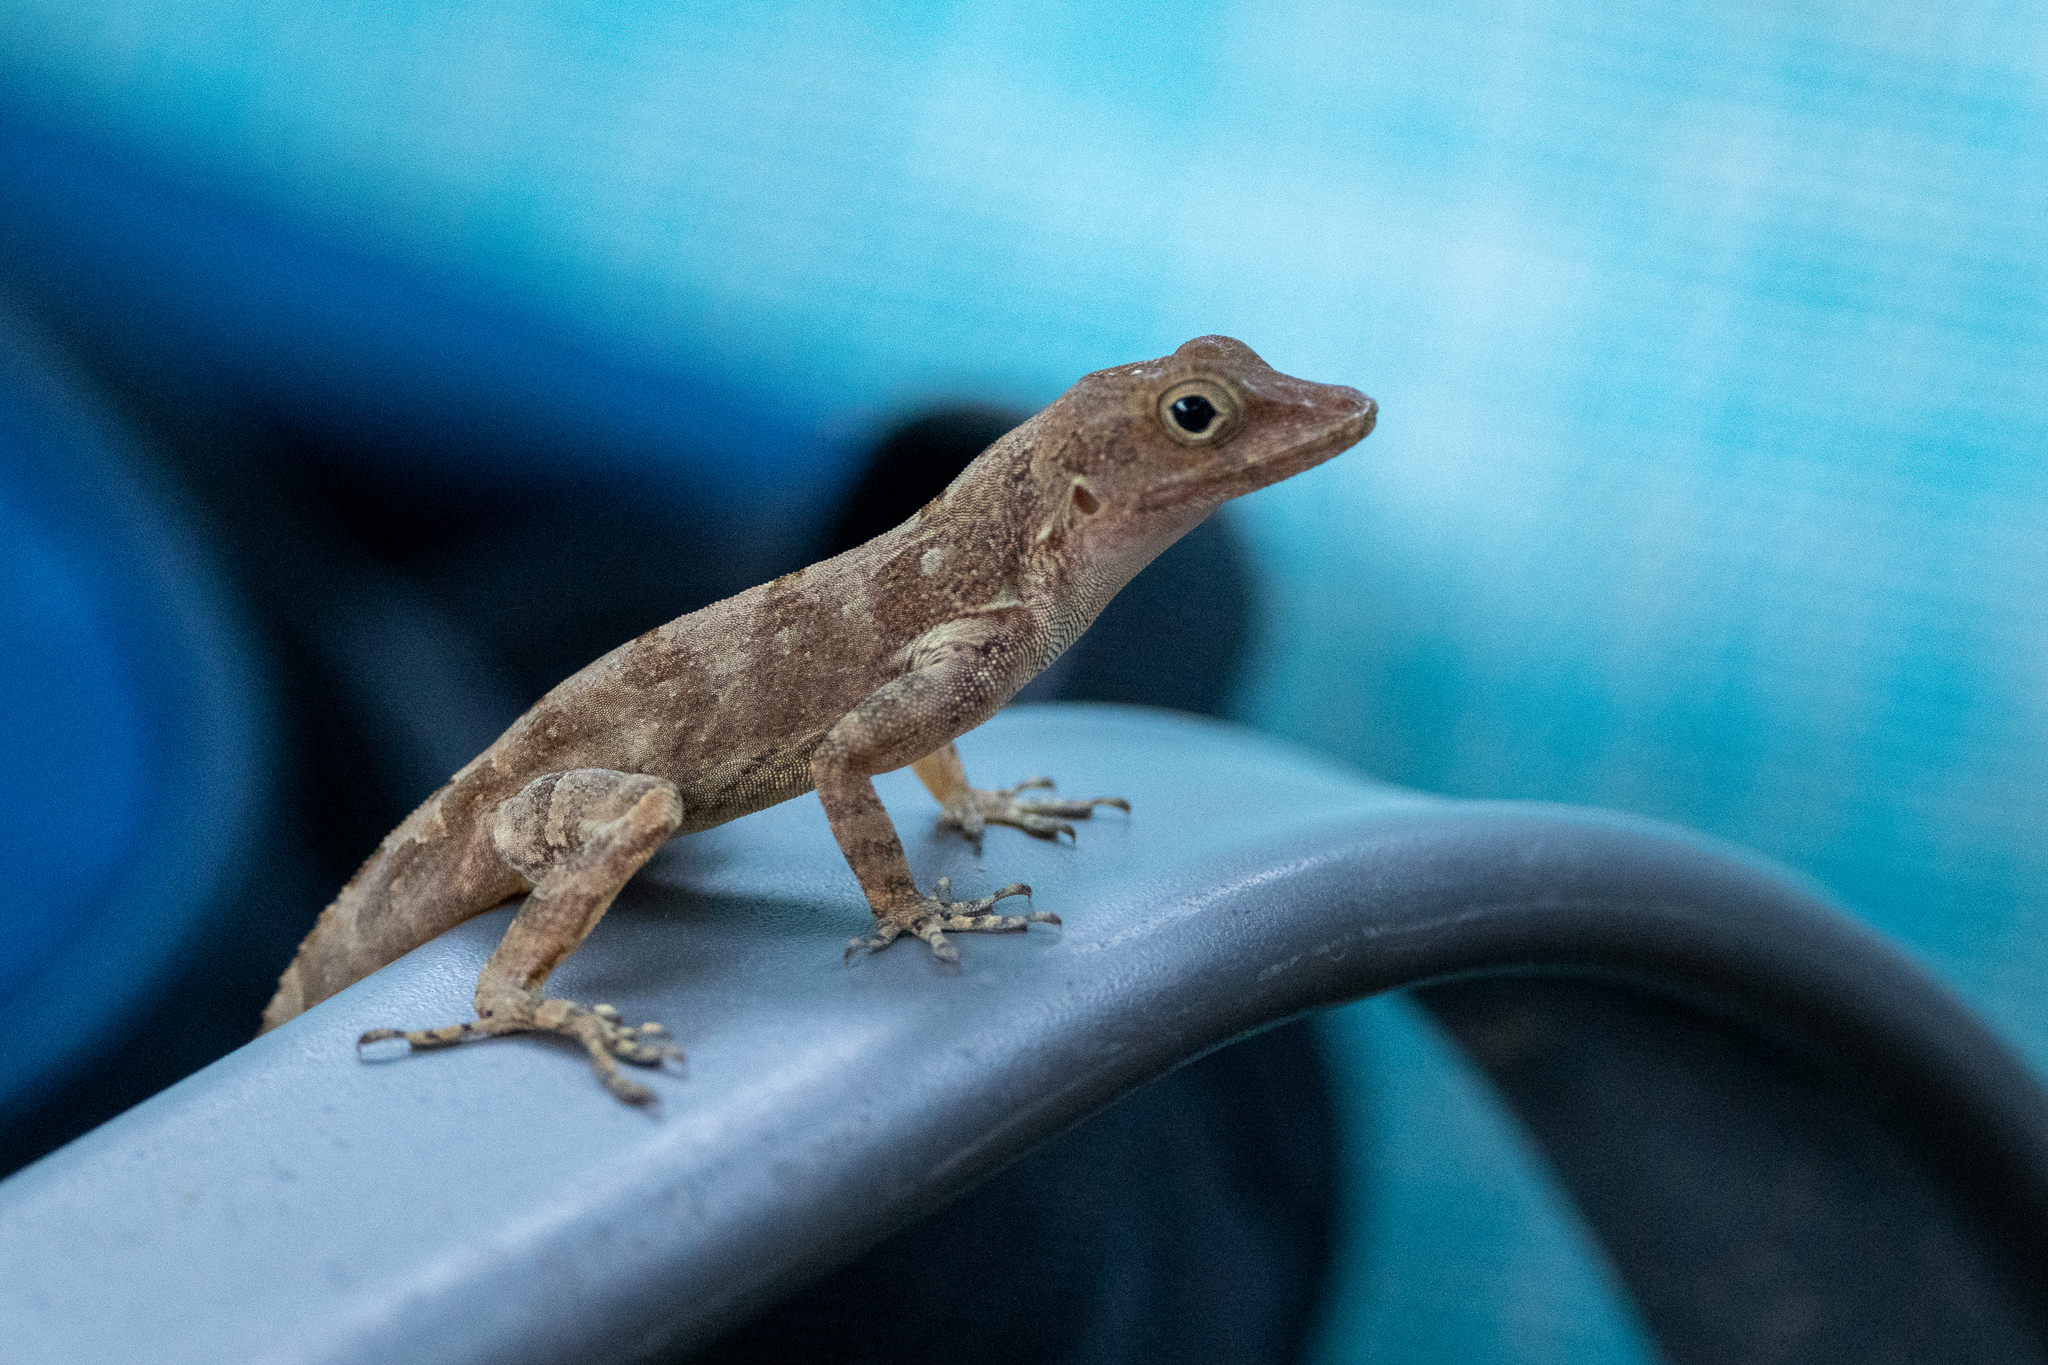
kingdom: Animalia
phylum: Chordata
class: Squamata
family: Dactyloidae
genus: Anolis
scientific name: Anolis cristatellus
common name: Crested anole
